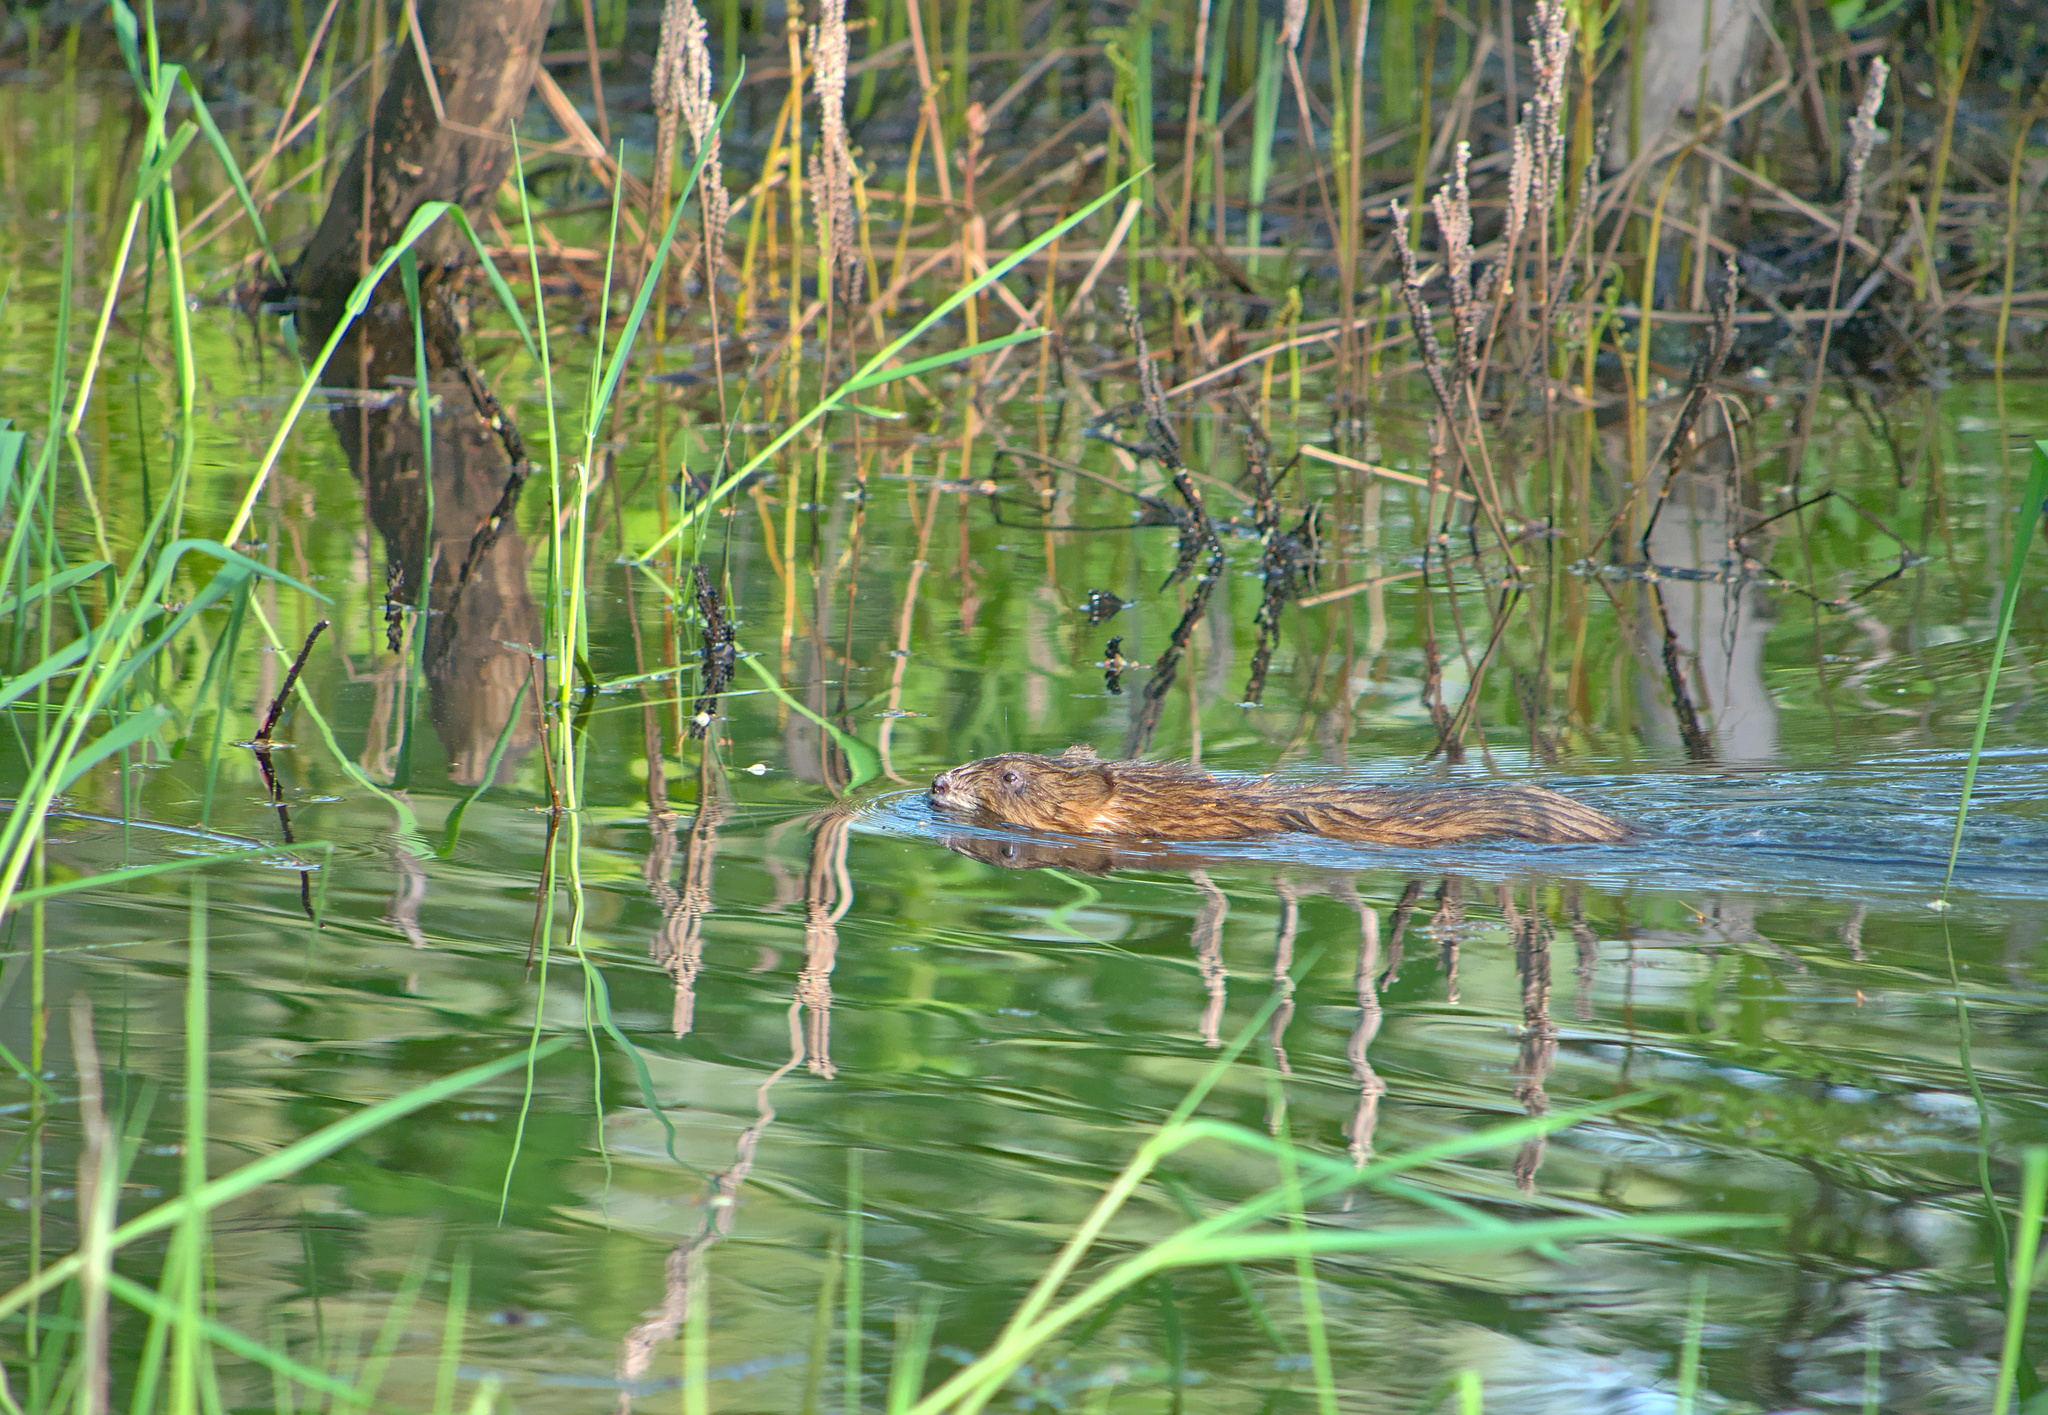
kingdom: Animalia
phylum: Chordata
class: Mammalia
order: Rodentia
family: Cricetidae
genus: Ondatra
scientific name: Ondatra zibethicus
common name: Muskrat
